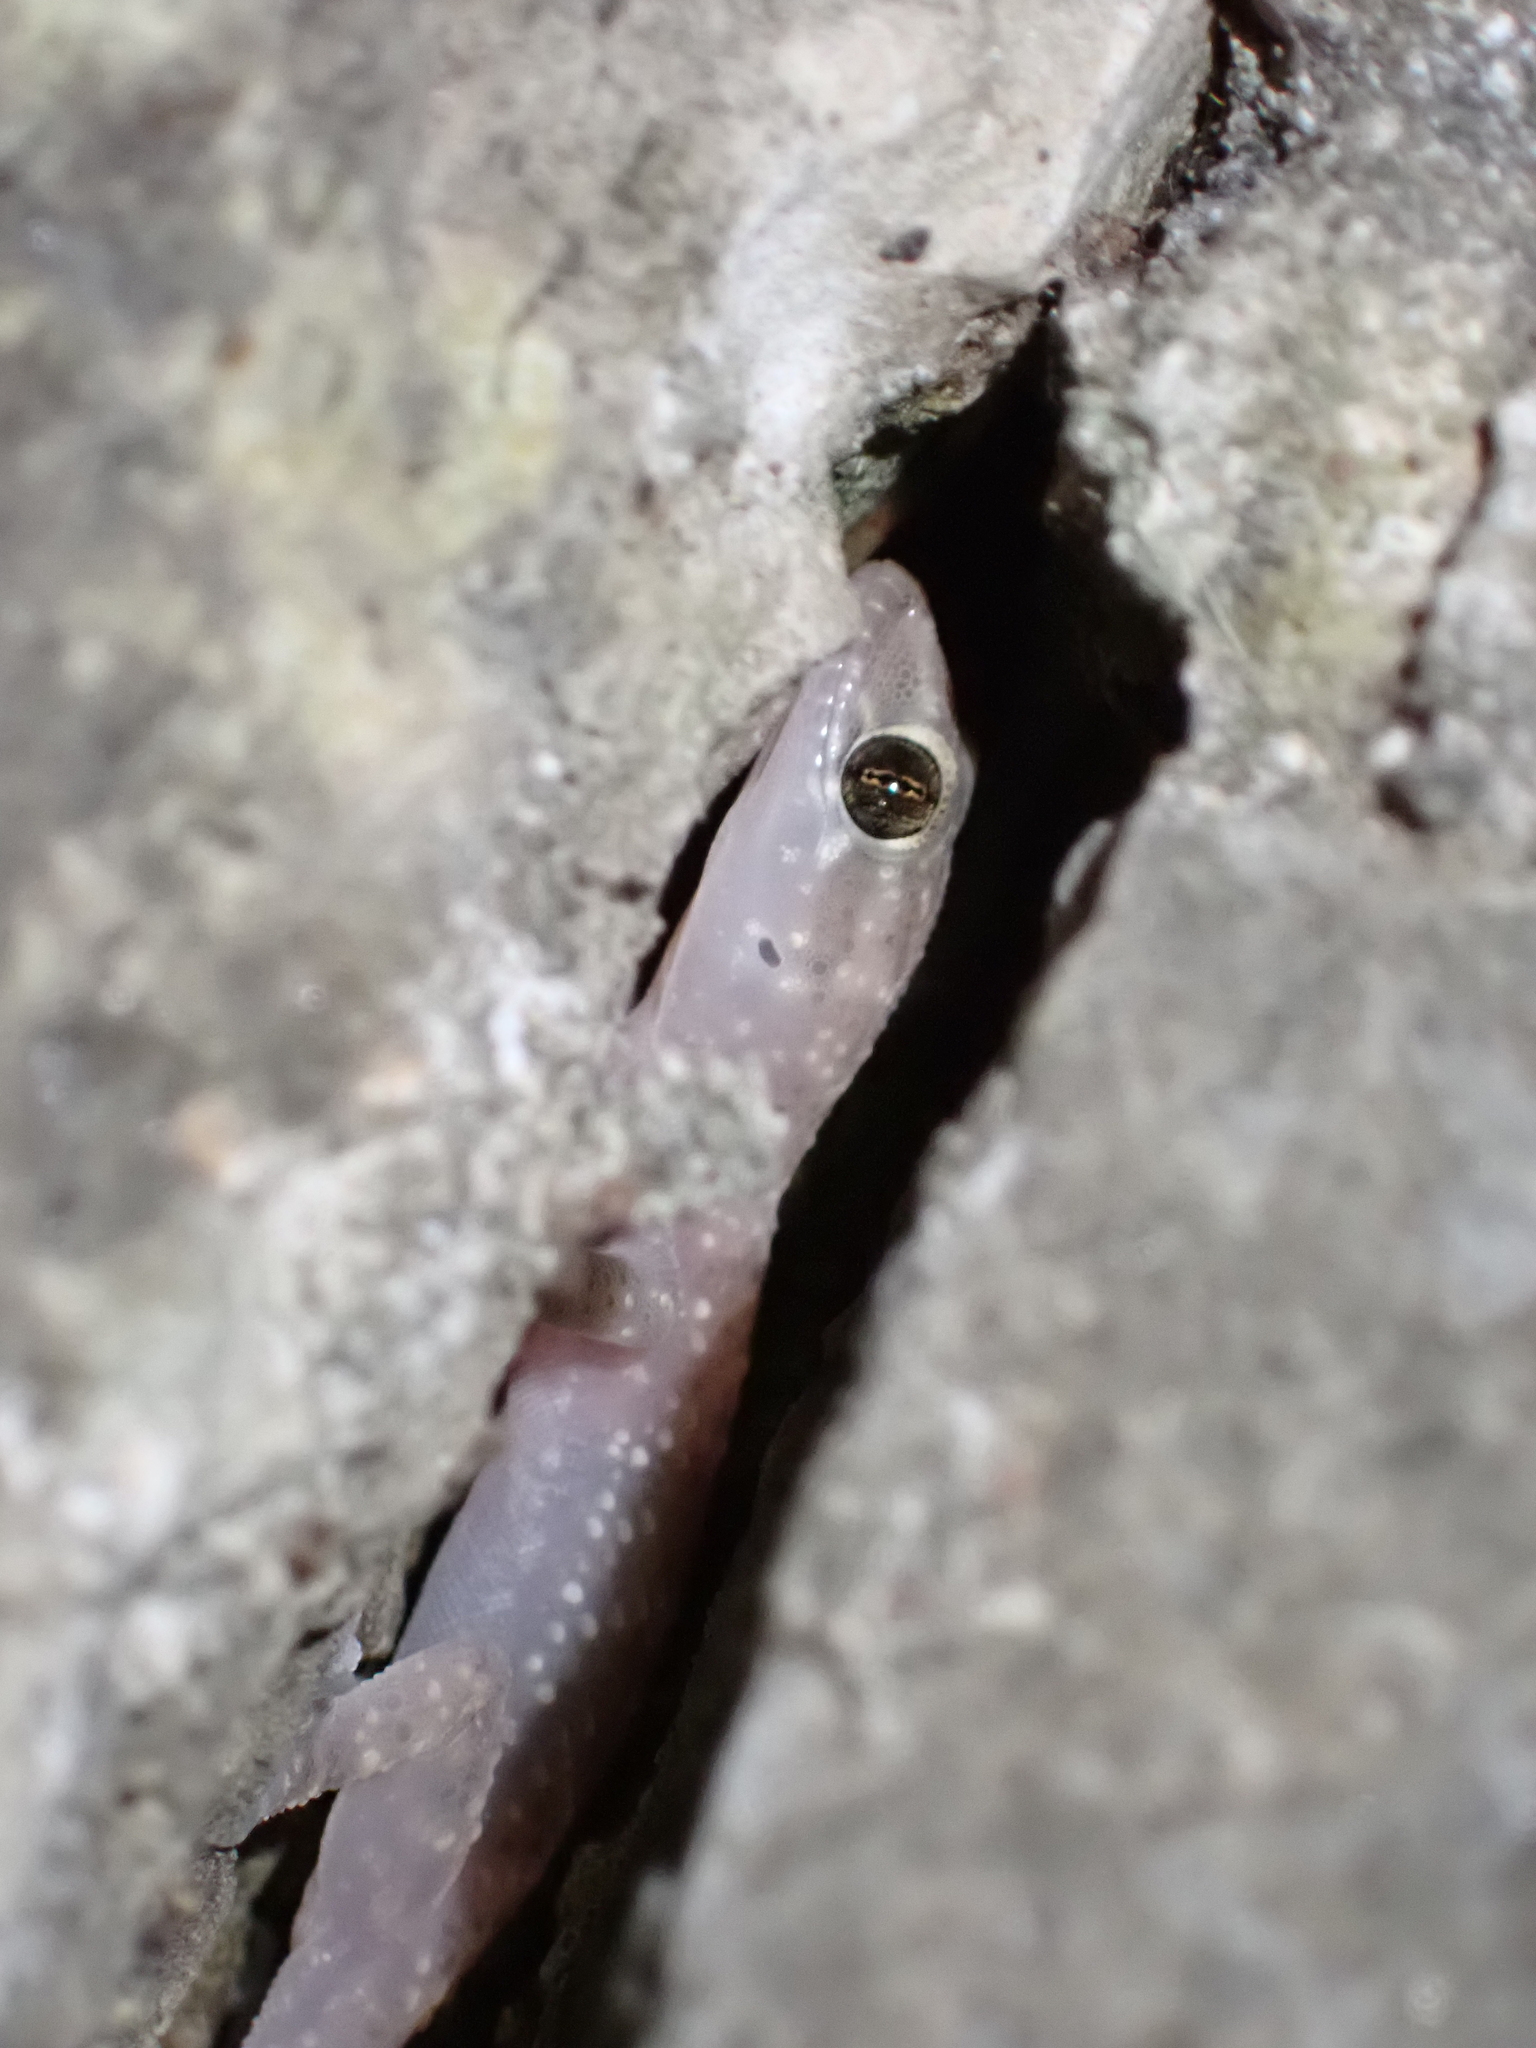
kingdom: Animalia
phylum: Chordata
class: Squamata
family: Gekkonidae
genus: Hemidactylus
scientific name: Hemidactylus turcicus
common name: Turkish gecko
